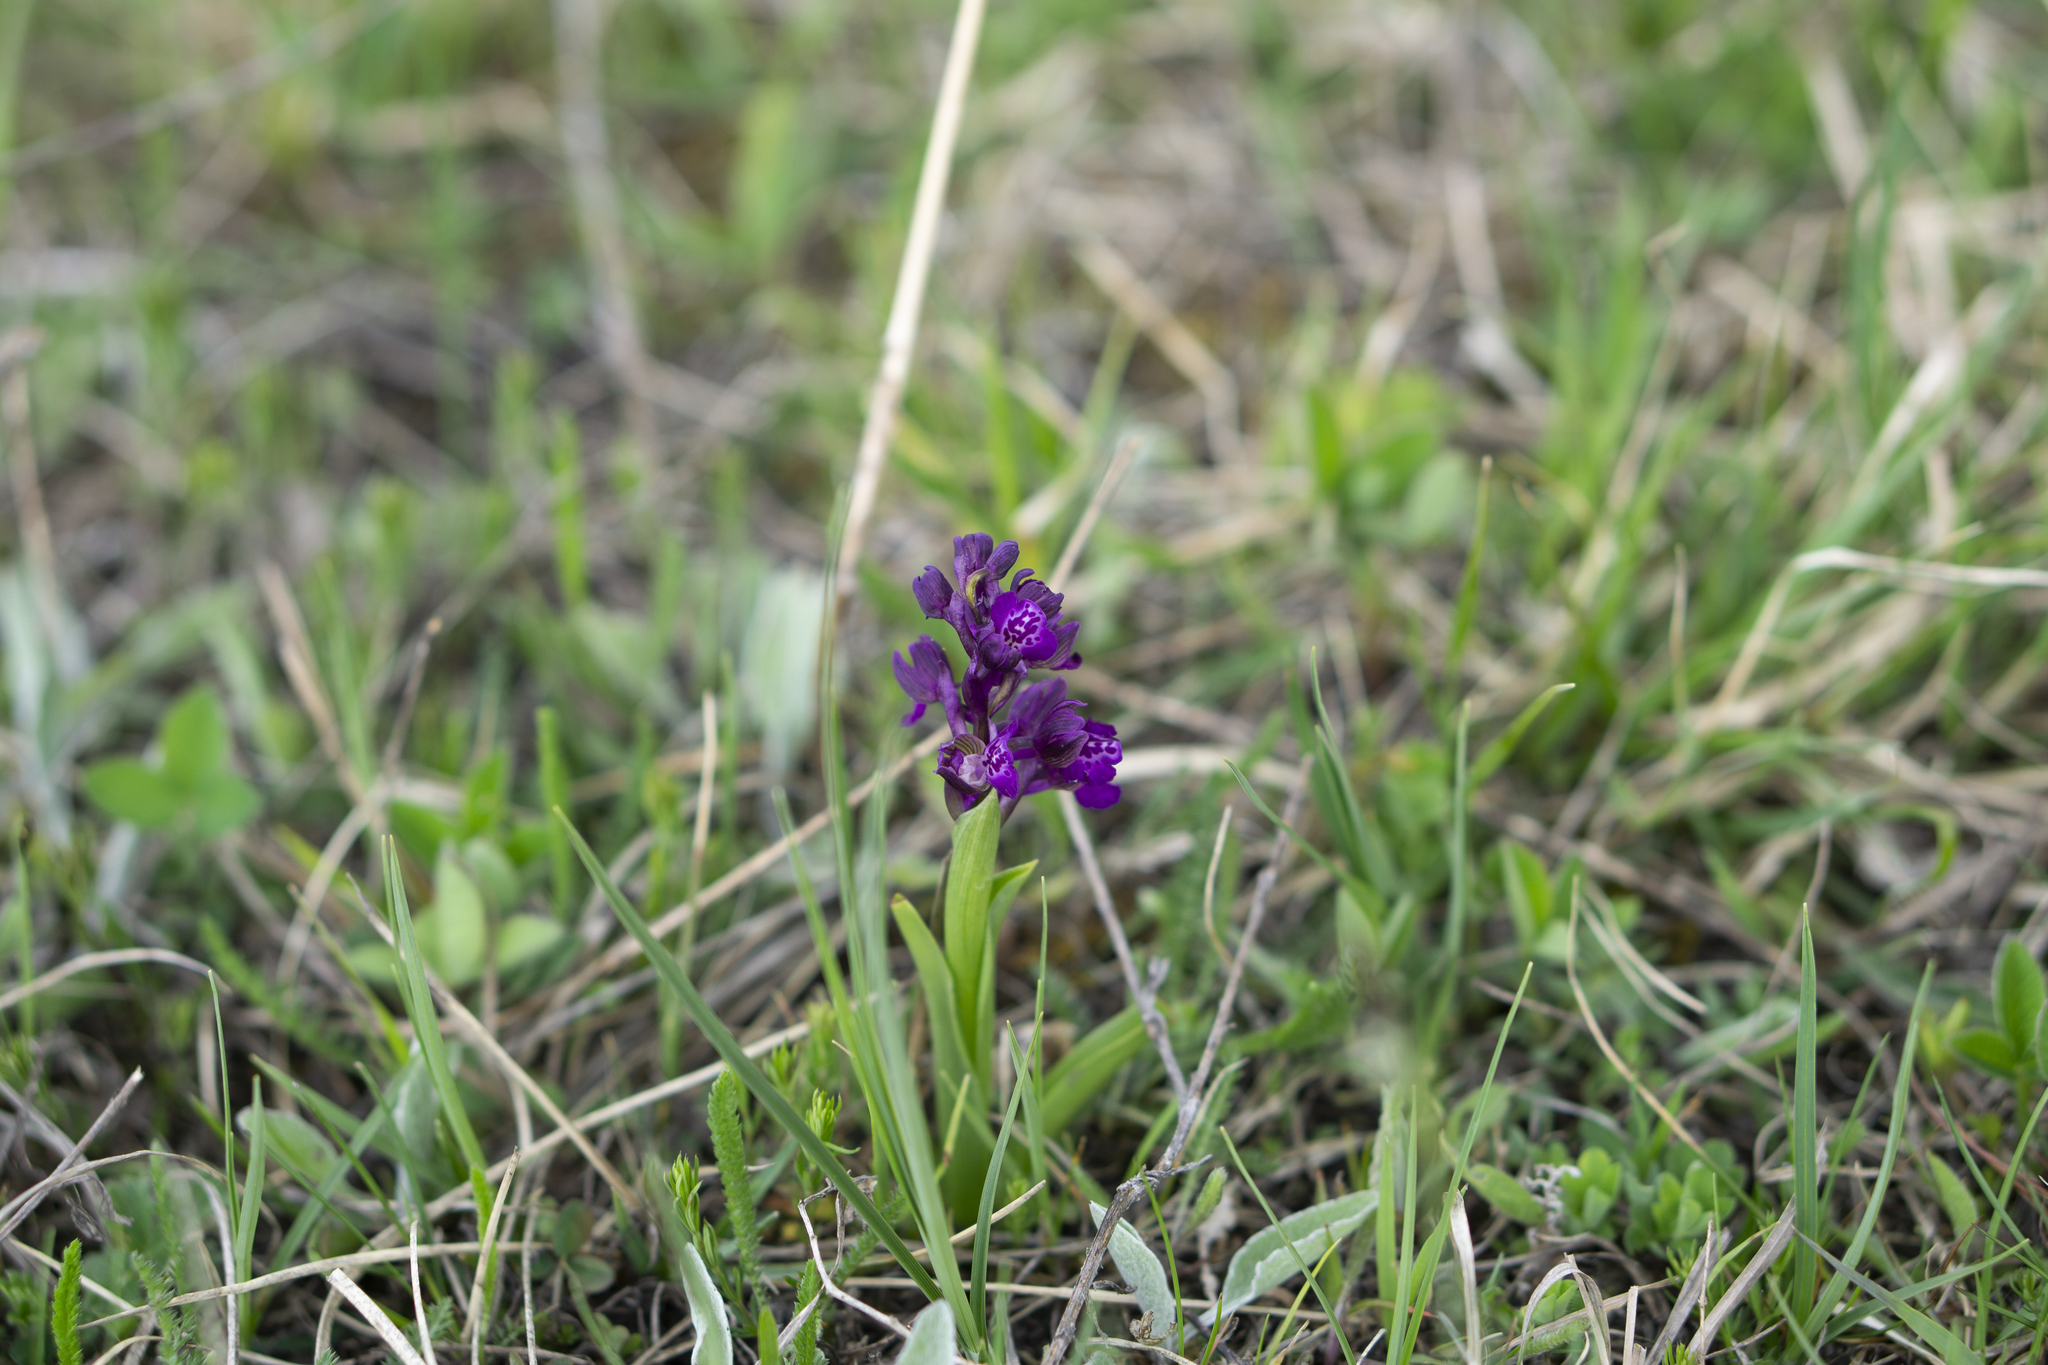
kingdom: Plantae
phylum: Tracheophyta
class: Liliopsida
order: Asparagales
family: Orchidaceae
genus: Anacamptis
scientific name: Anacamptis morio
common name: Green-winged orchid
